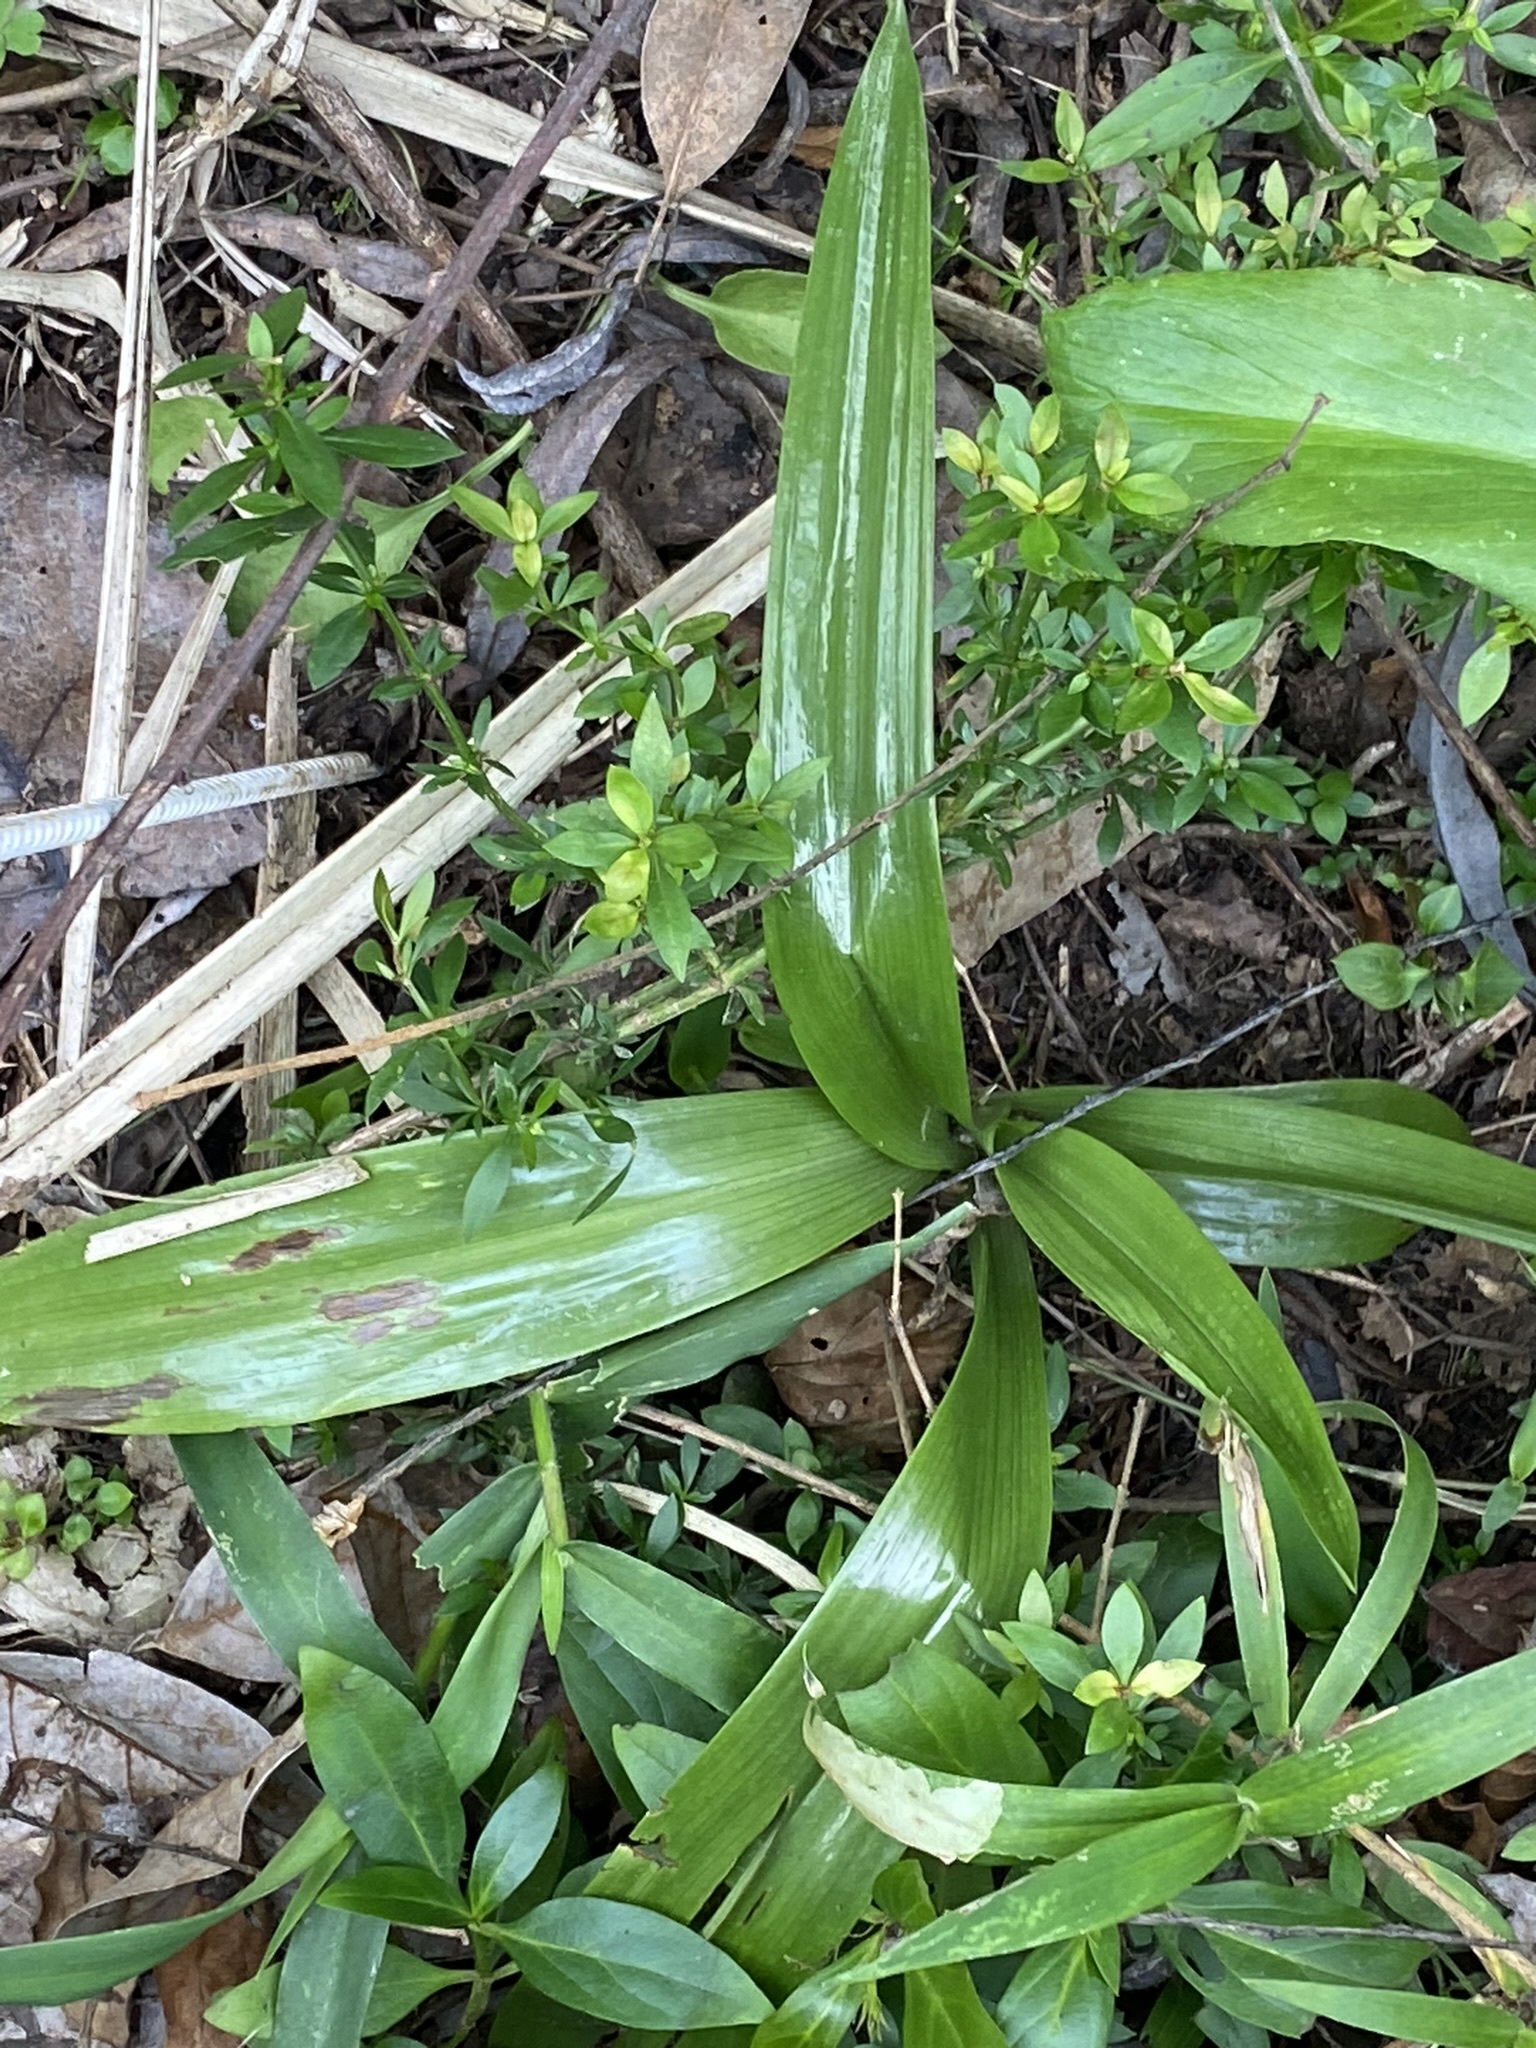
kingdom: Plantae
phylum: Tracheophyta
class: Liliopsida
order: Asparagales
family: Orchidaceae
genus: Chloraea
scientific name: Chloraea membranacea
